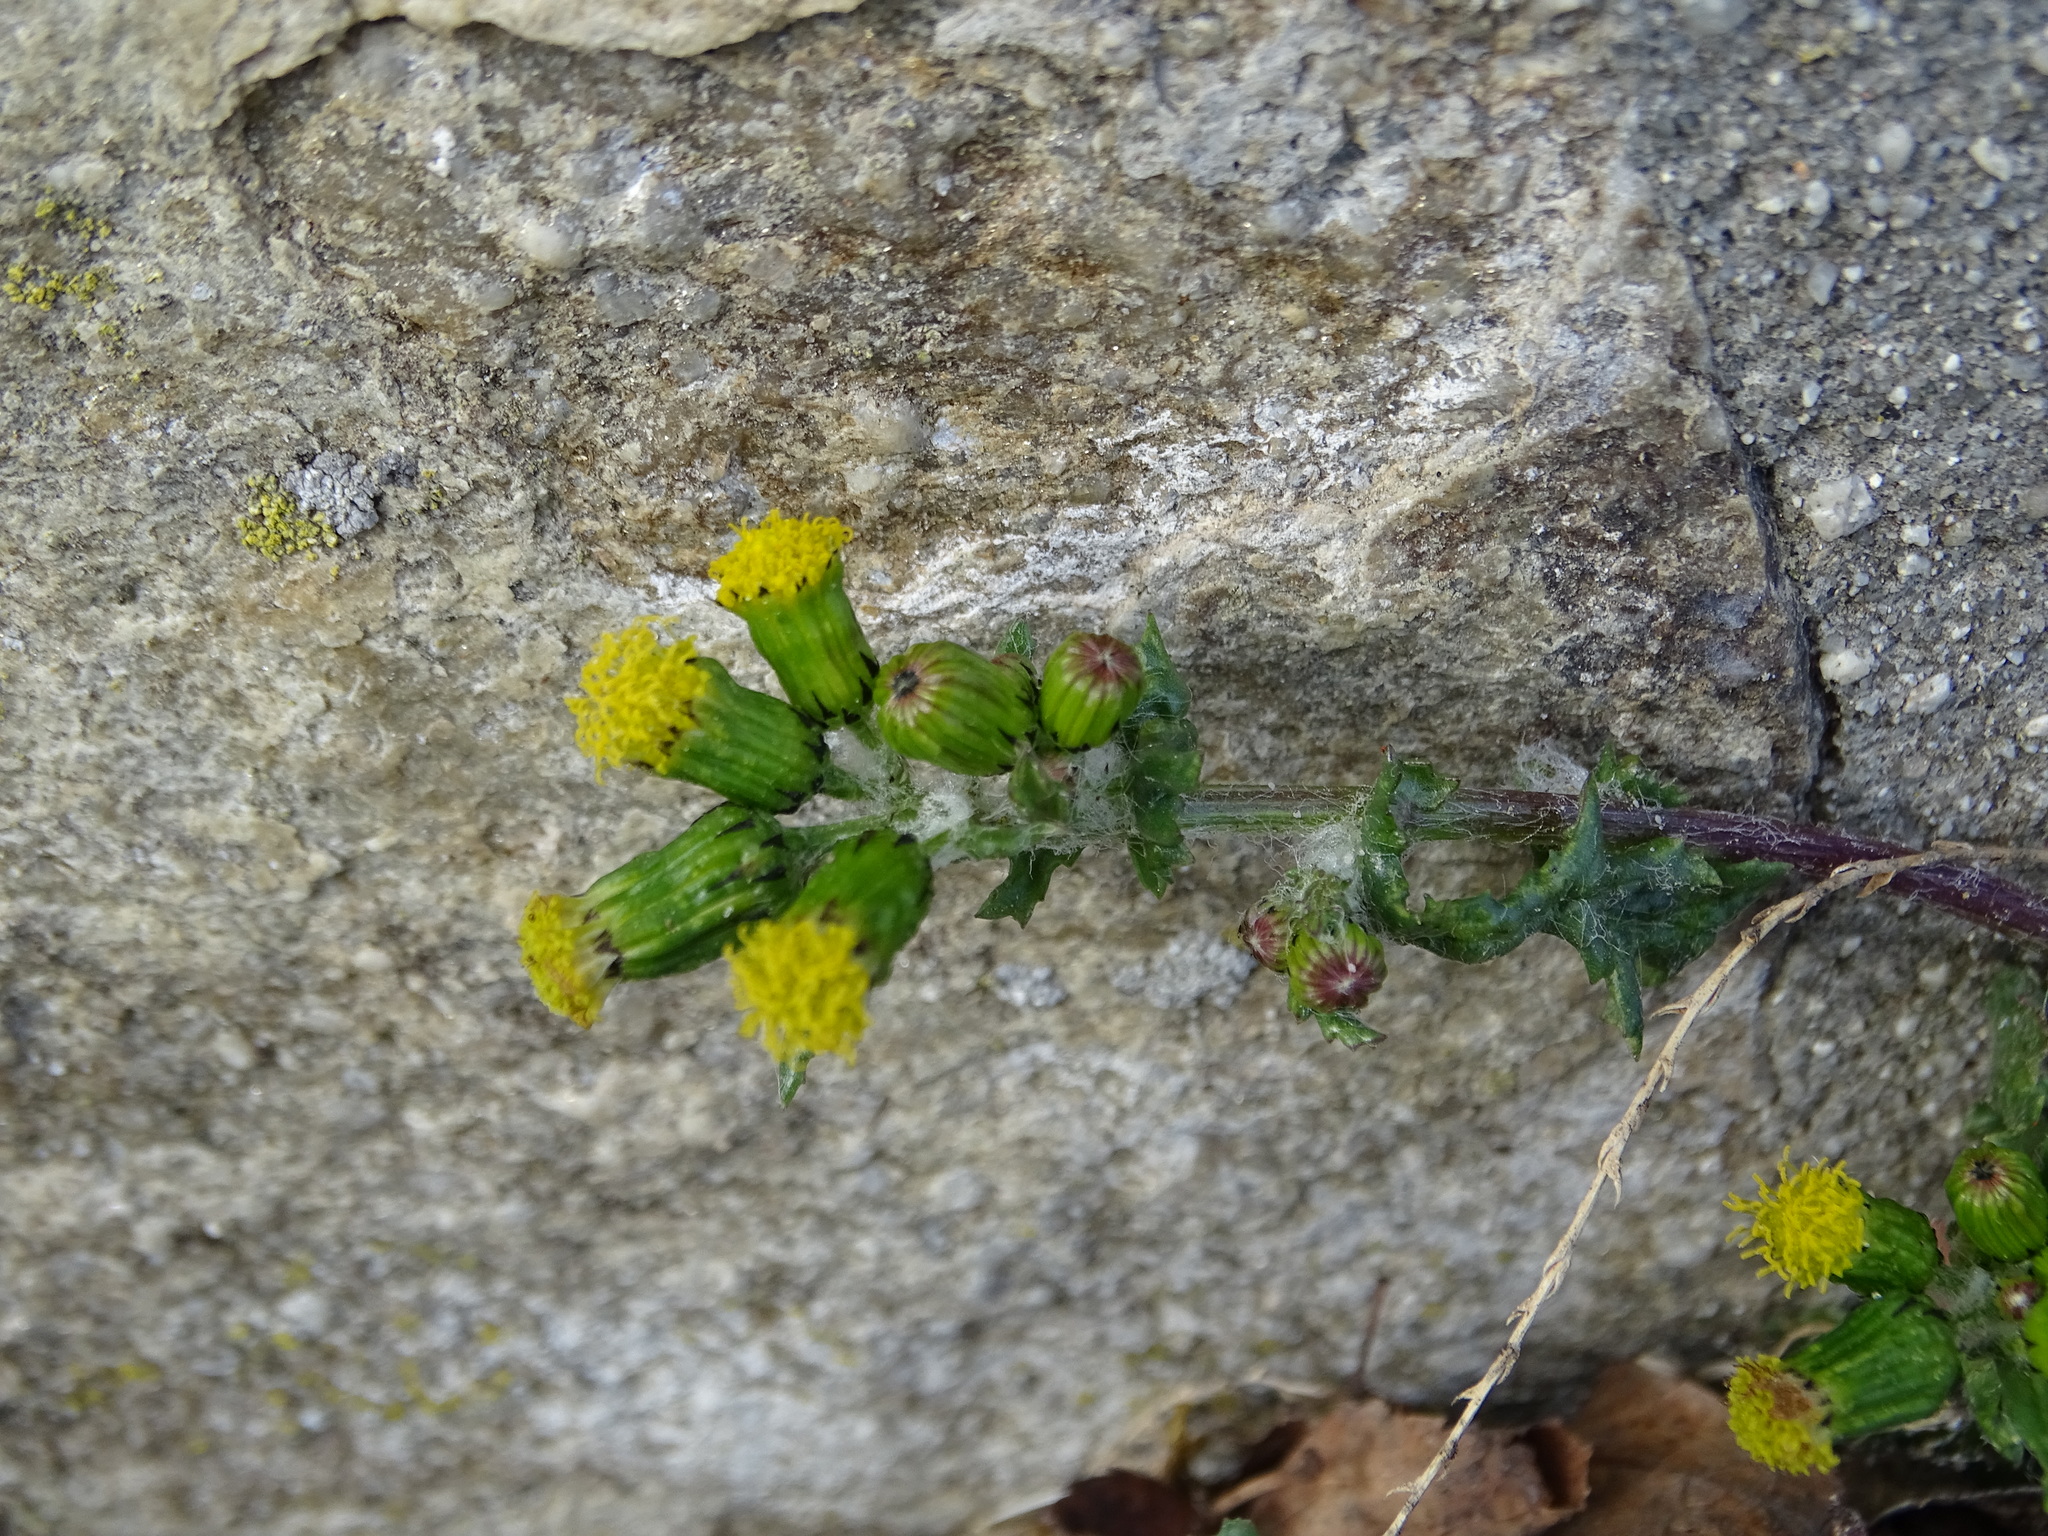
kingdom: Plantae
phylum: Tracheophyta
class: Magnoliopsida
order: Asterales
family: Asteraceae
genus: Senecio
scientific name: Senecio vulgaris
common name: Old-man-in-the-spring
